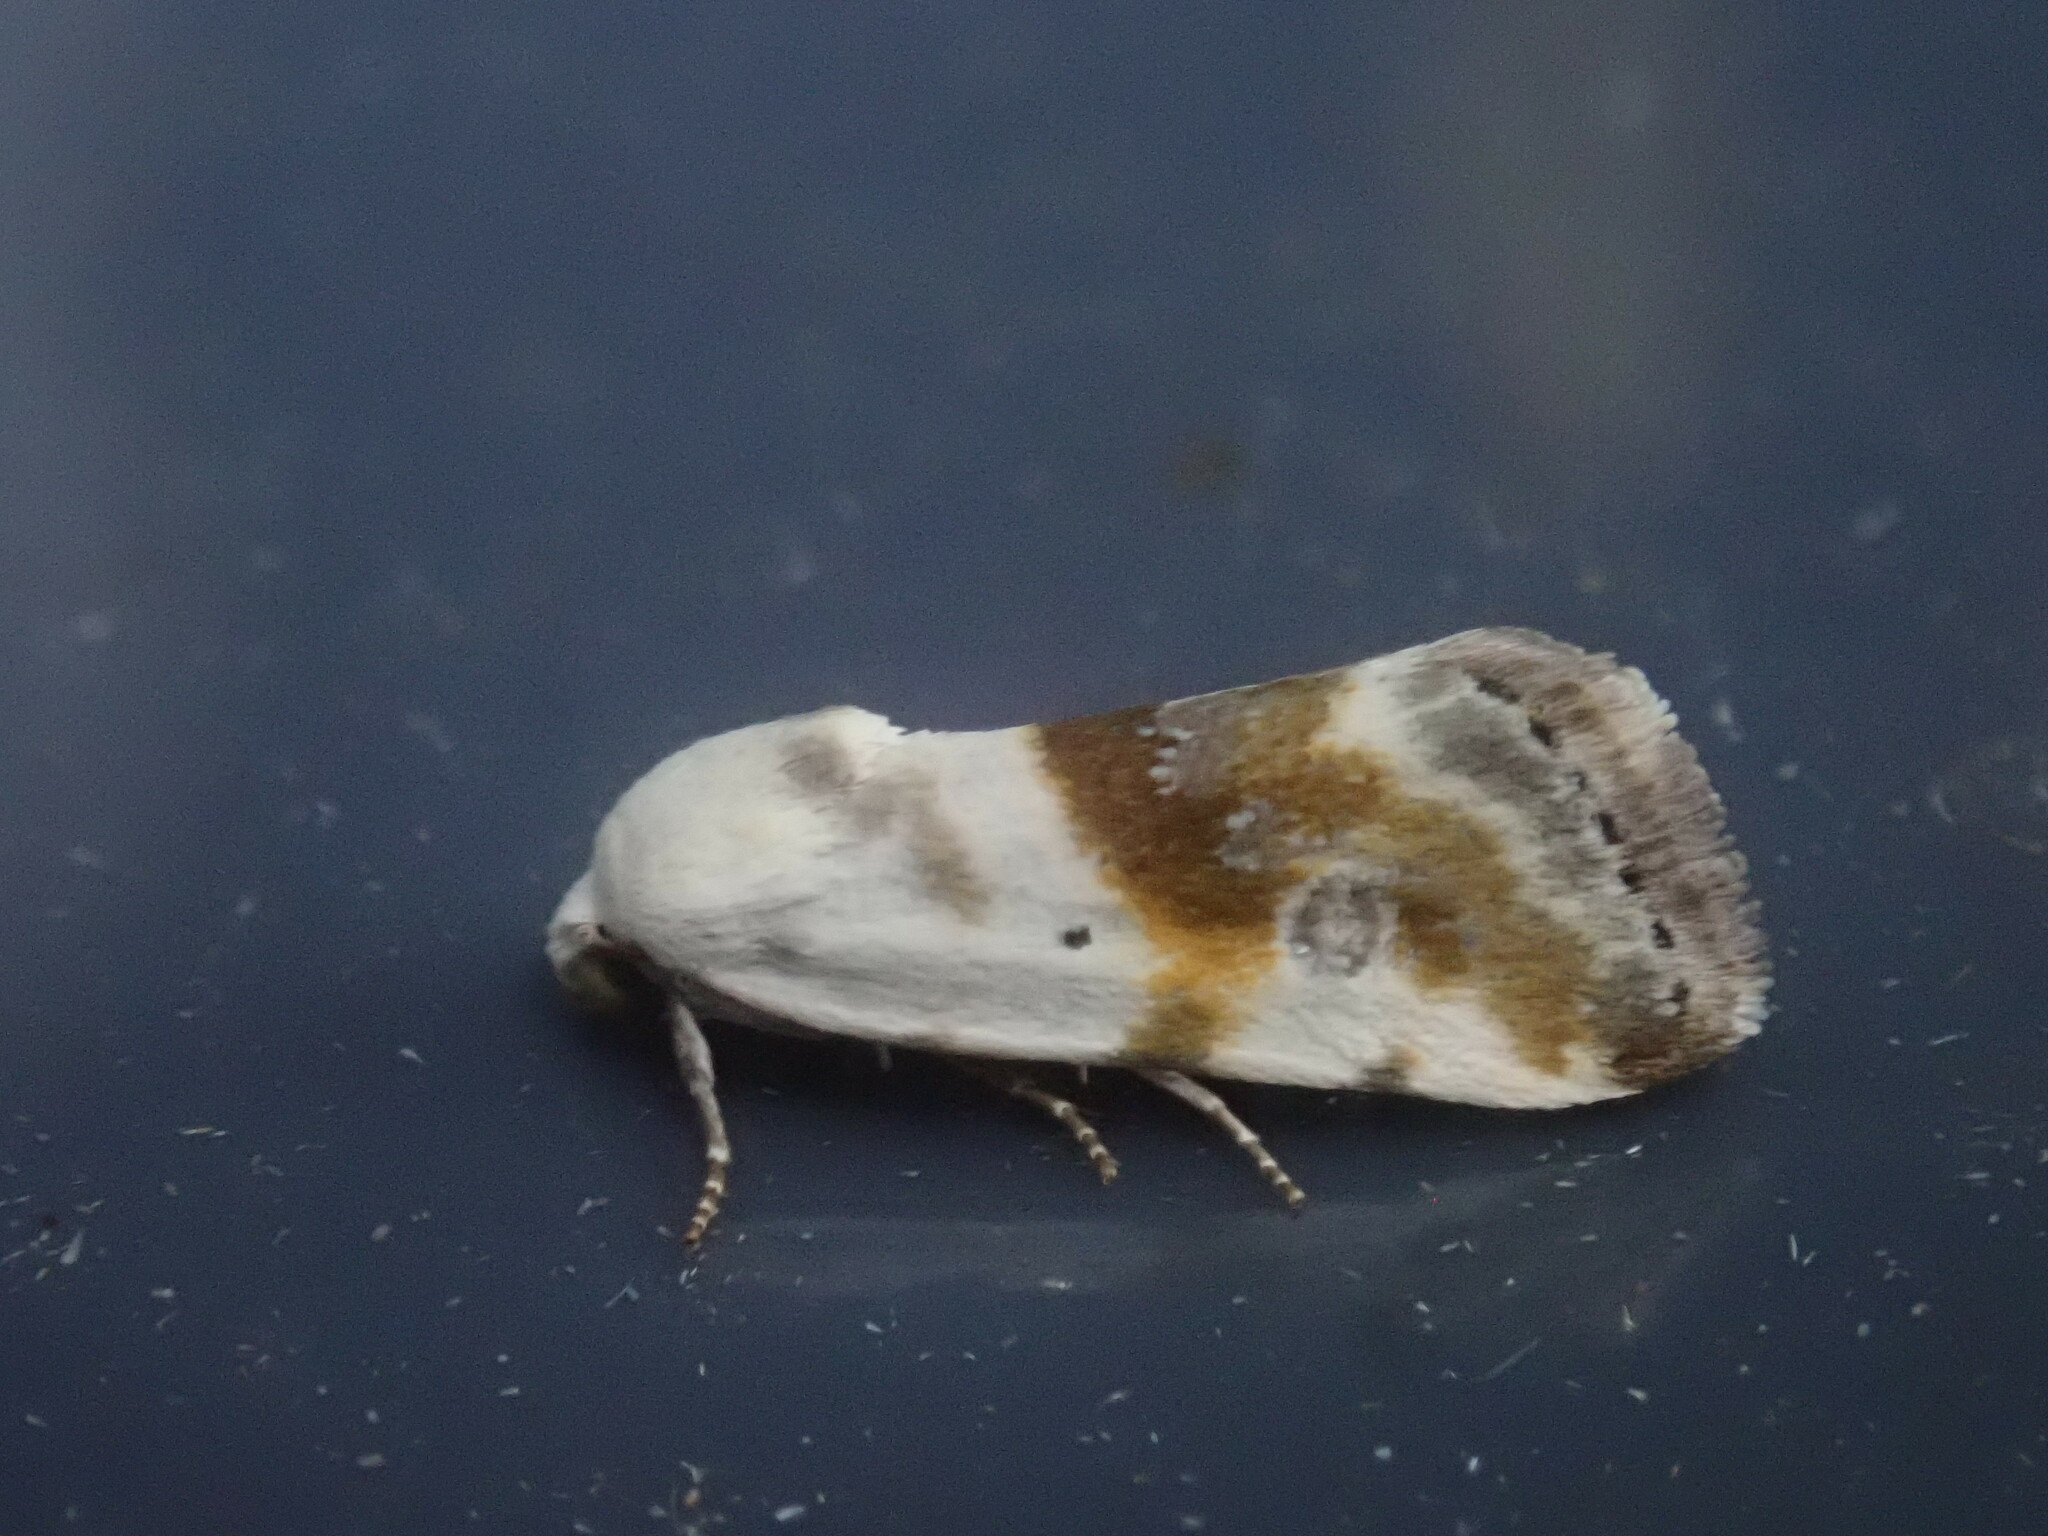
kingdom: Animalia
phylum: Arthropoda
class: Insecta
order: Lepidoptera
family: Noctuidae
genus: Acontia
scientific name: Acontia candefacta
